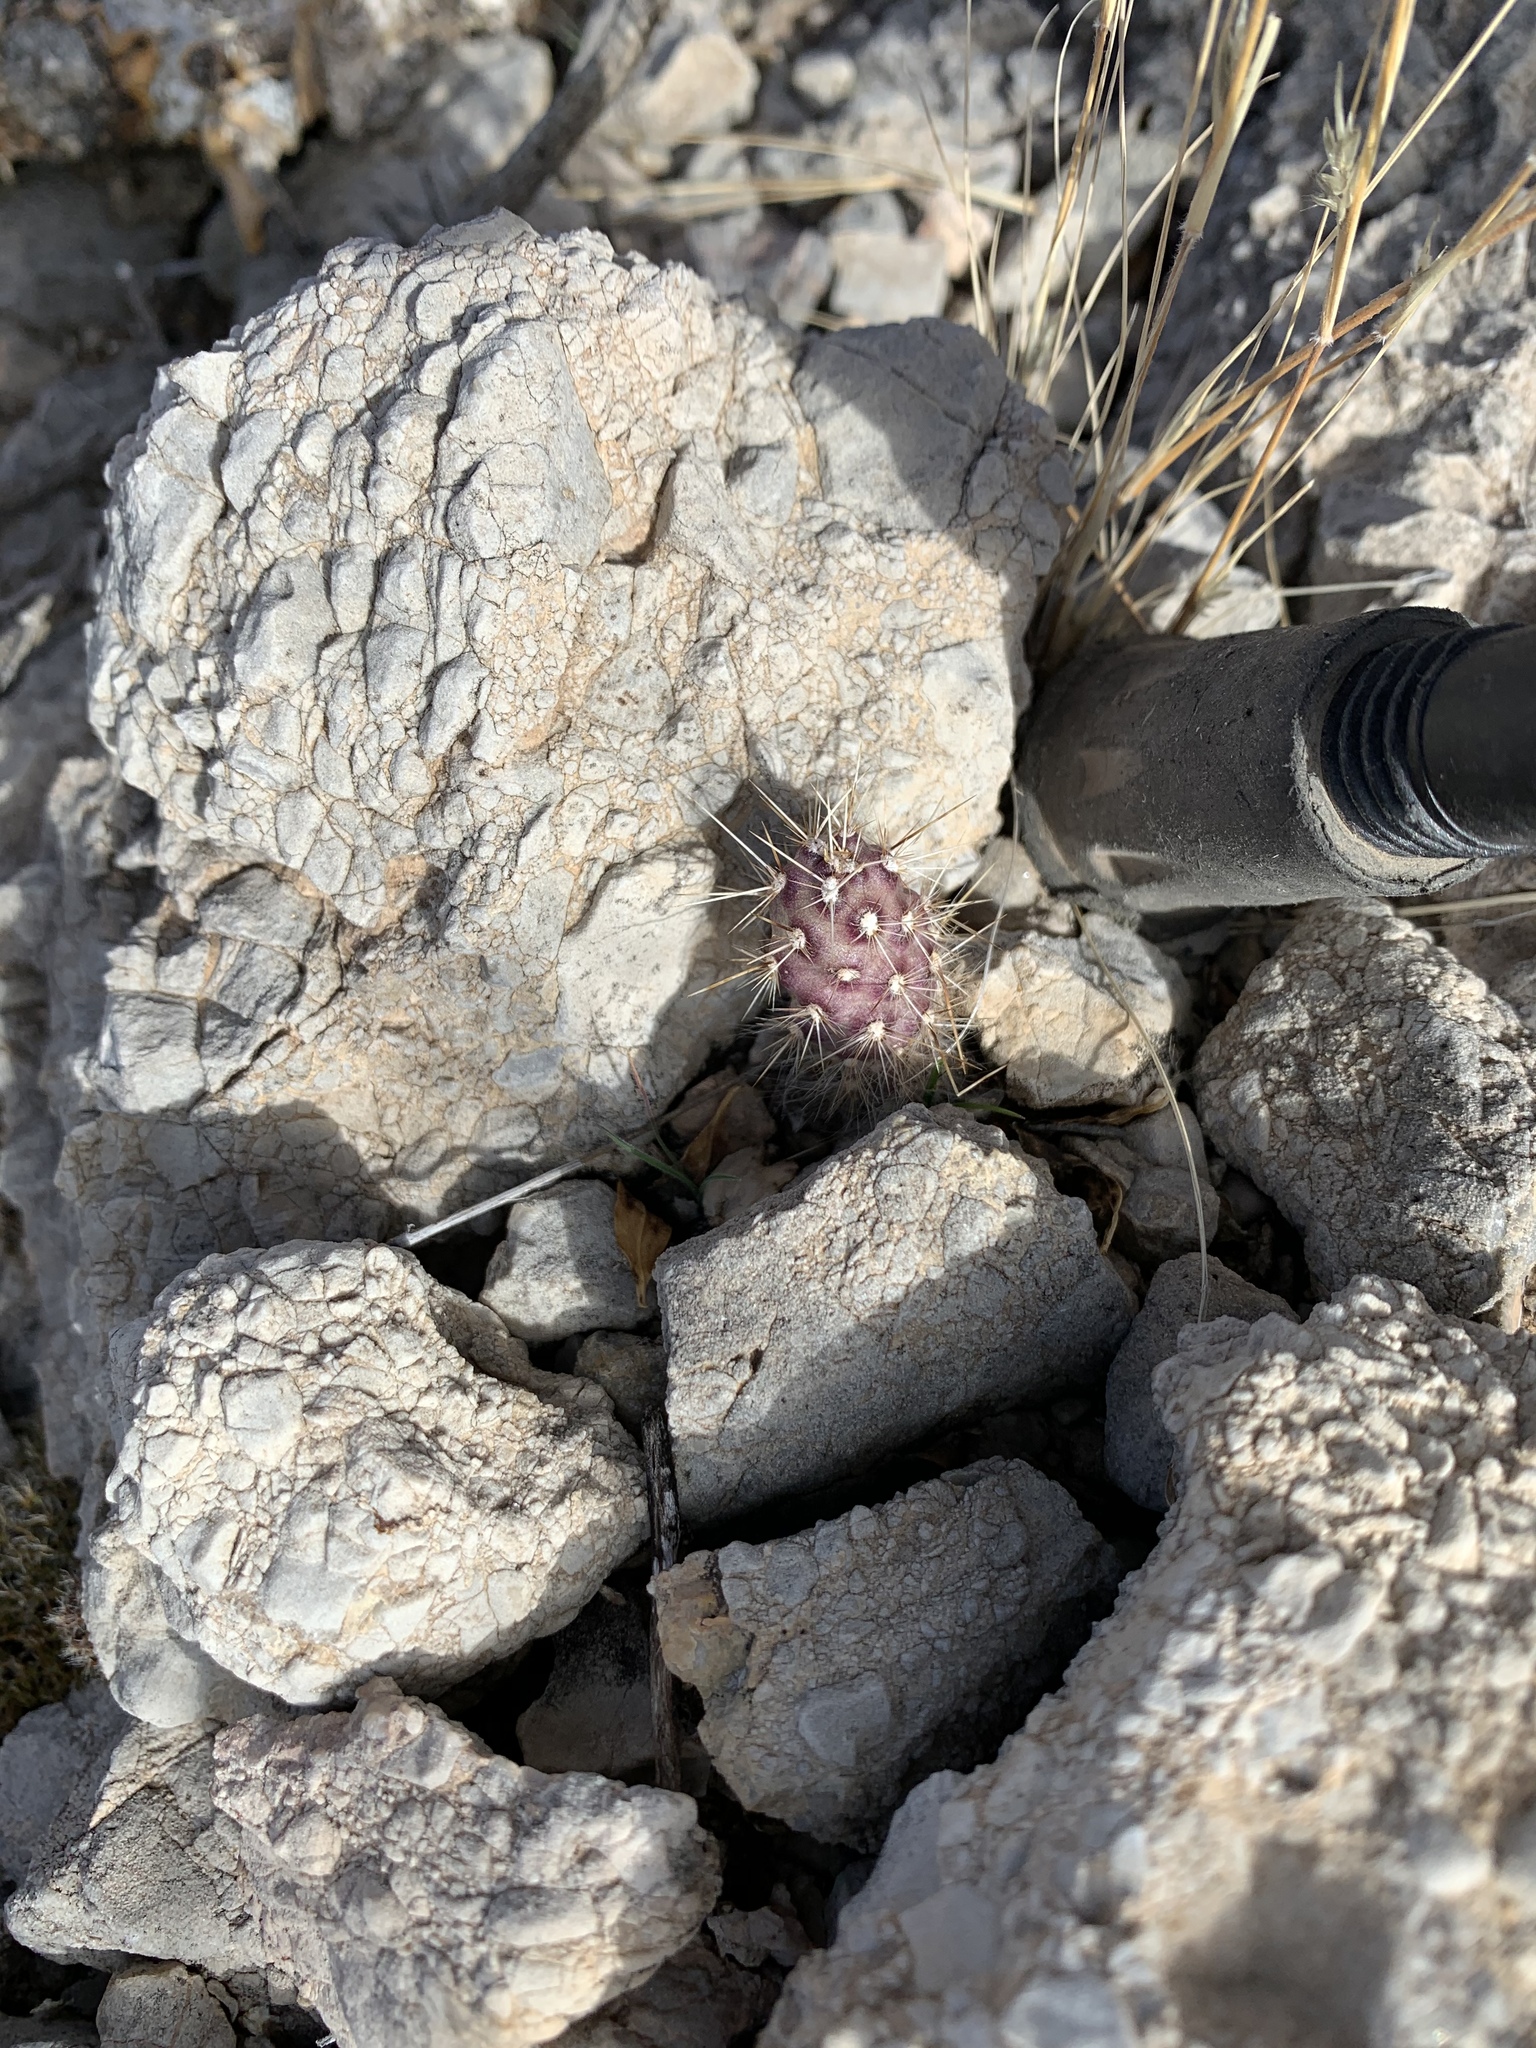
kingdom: Plantae
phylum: Tracheophyta
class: Magnoliopsida
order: Caryophyllales
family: Cactaceae
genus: Opuntia
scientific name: Opuntia
